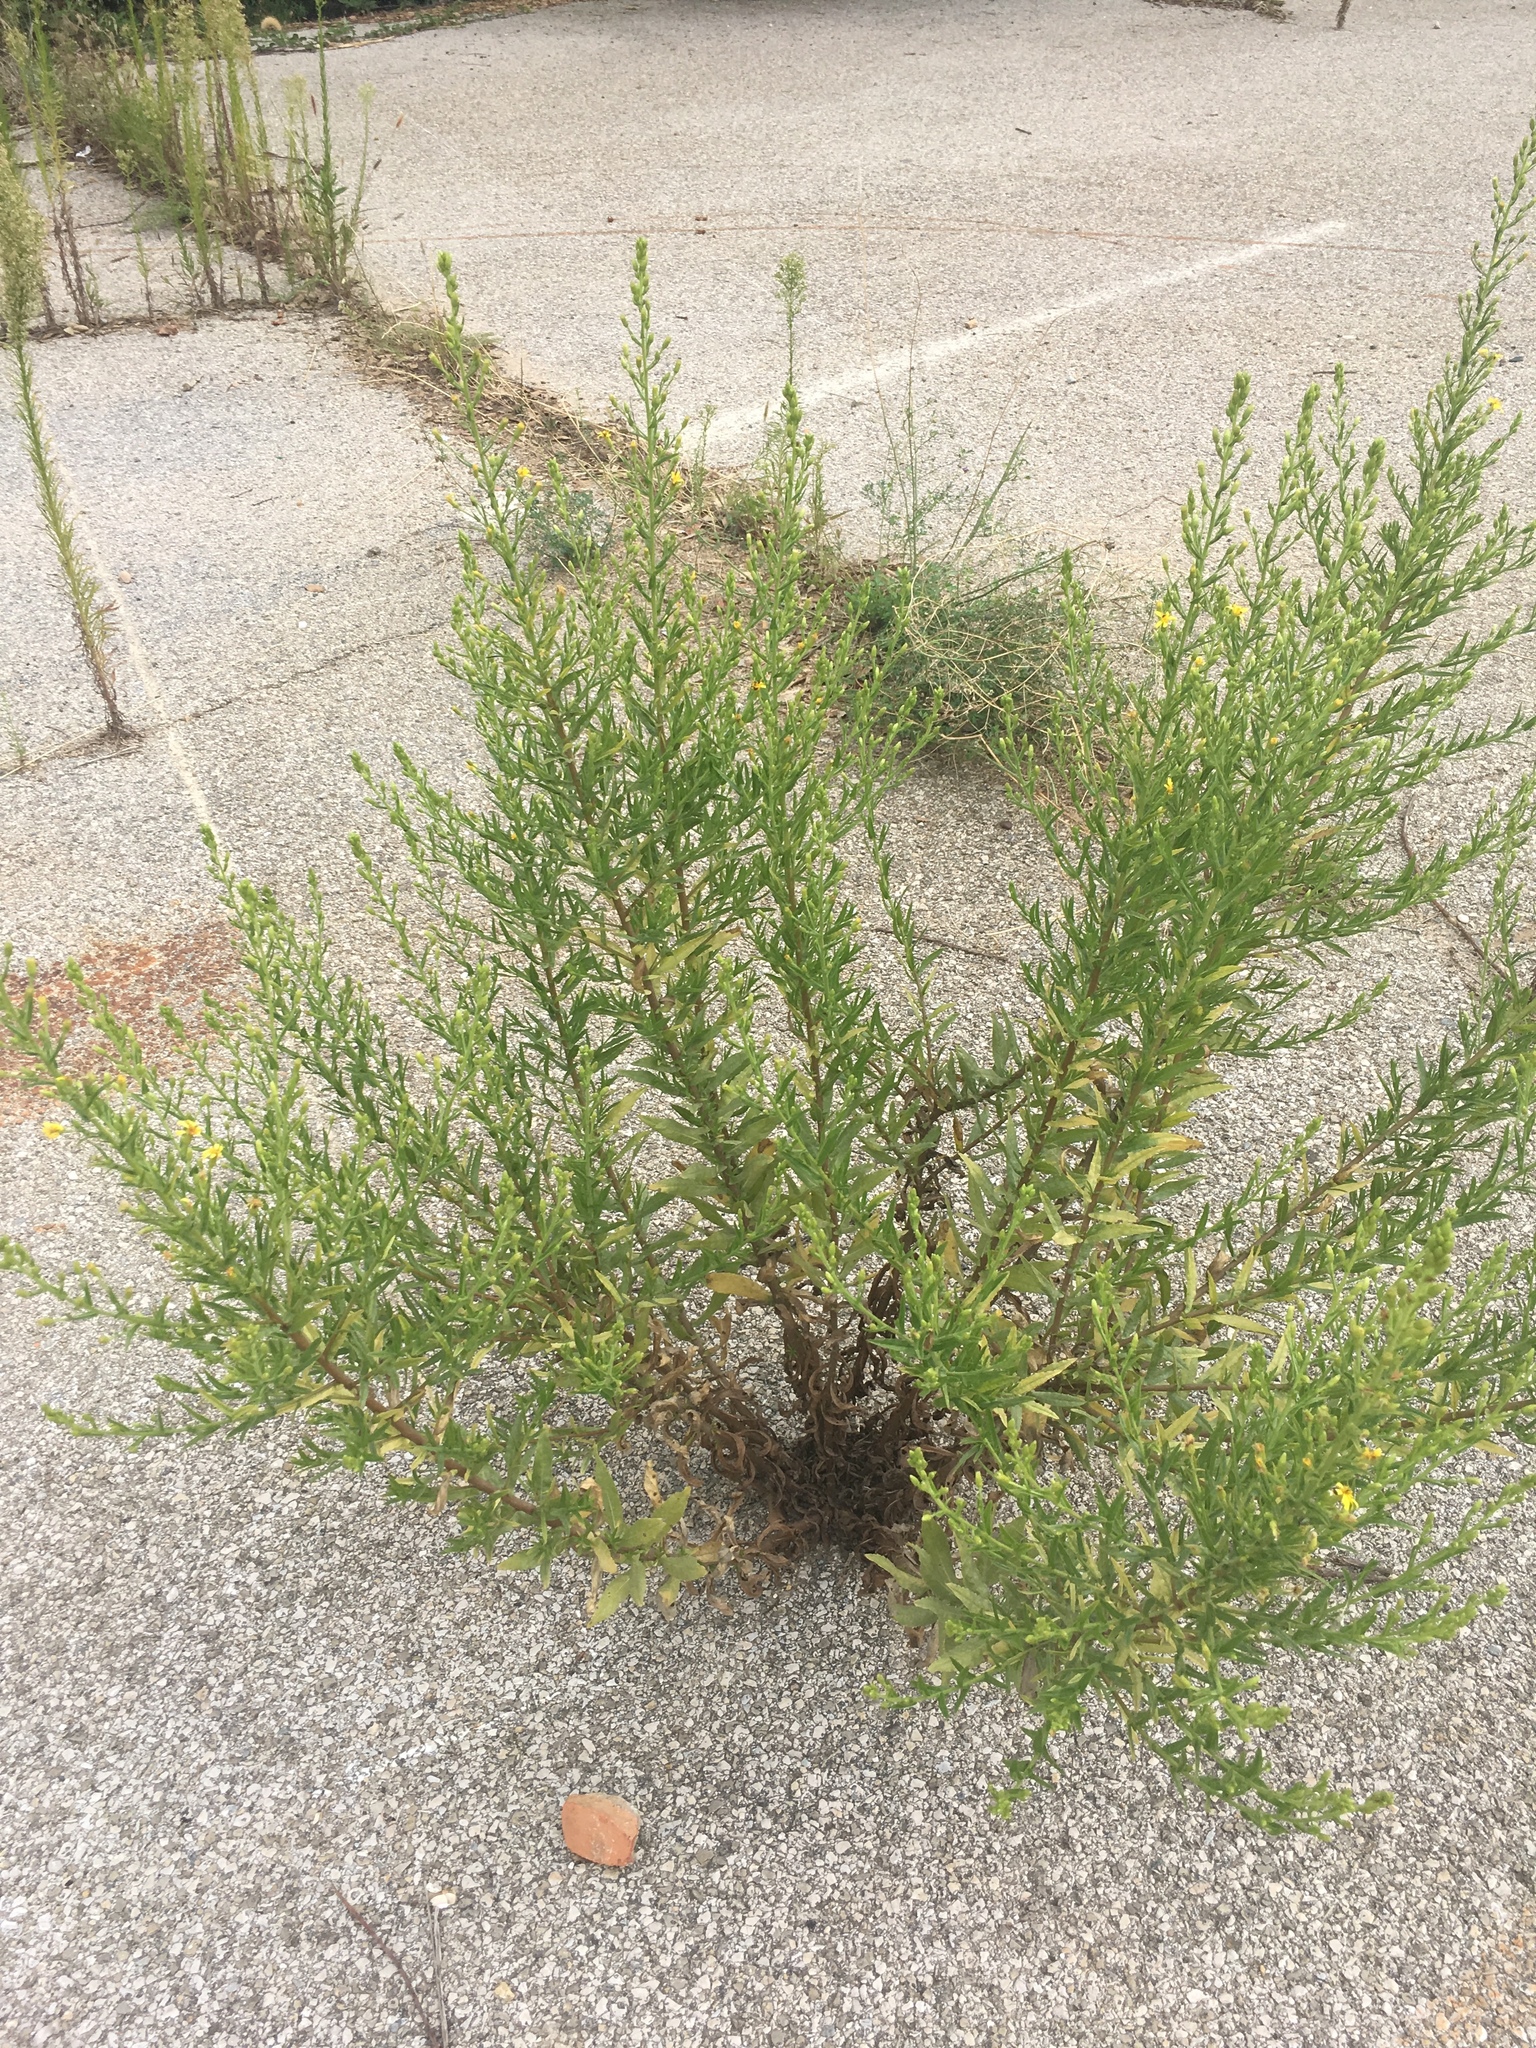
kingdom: Plantae
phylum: Tracheophyta
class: Magnoliopsida
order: Asterales
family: Asteraceae
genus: Dittrichia
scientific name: Dittrichia viscosa
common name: Woody fleabane
